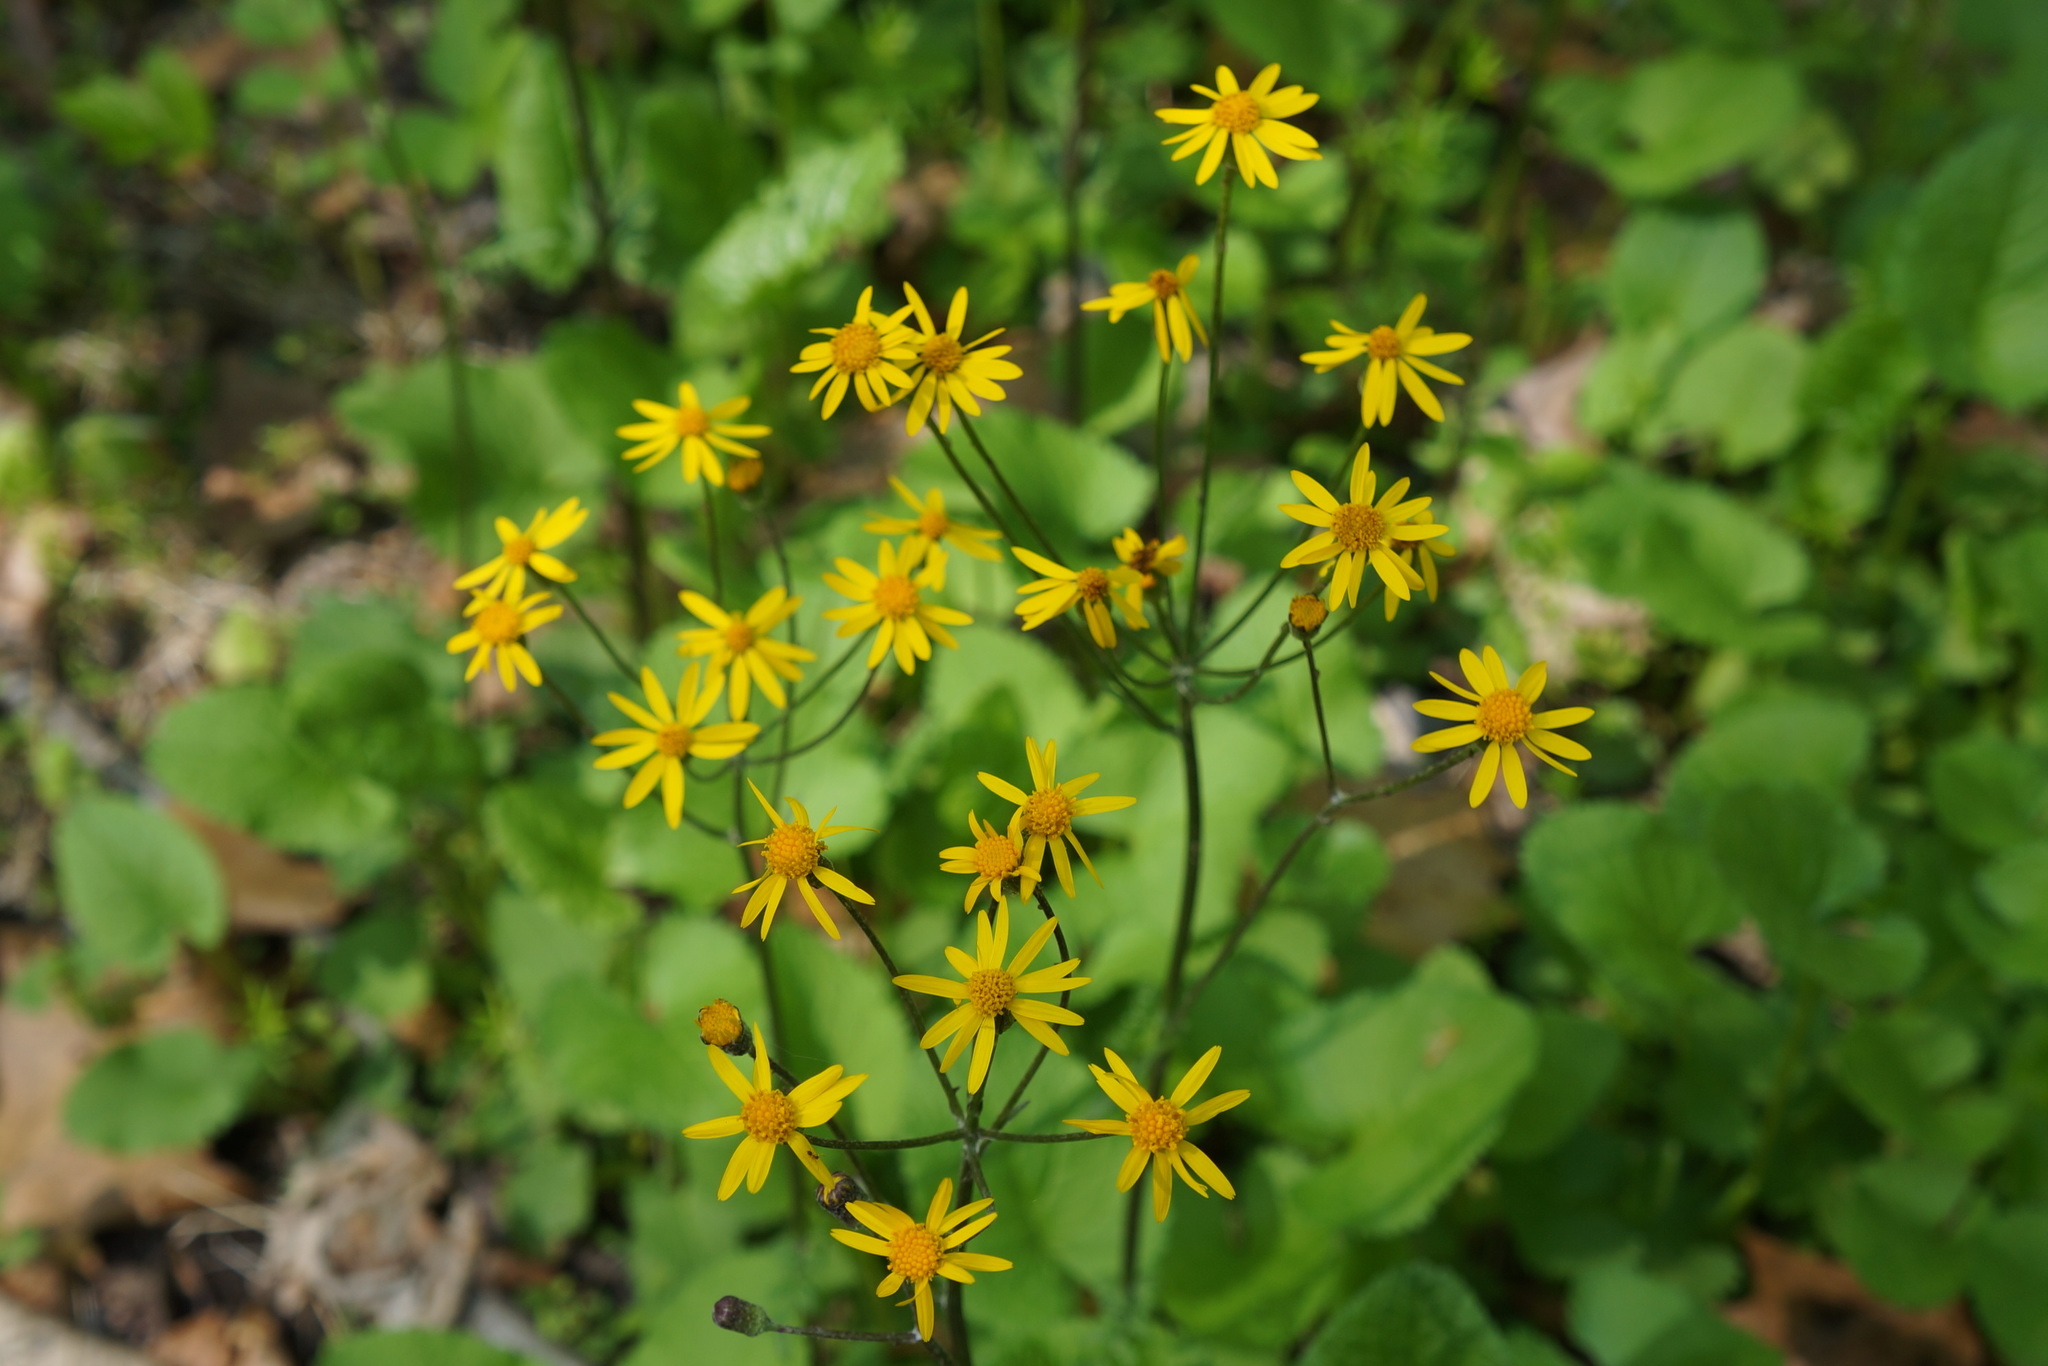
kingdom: Plantae
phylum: Tracheophyta
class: Magnoliopsida
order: Asterales
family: Asteraceae
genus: Packera
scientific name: Packera aurea
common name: Golden groundsel
